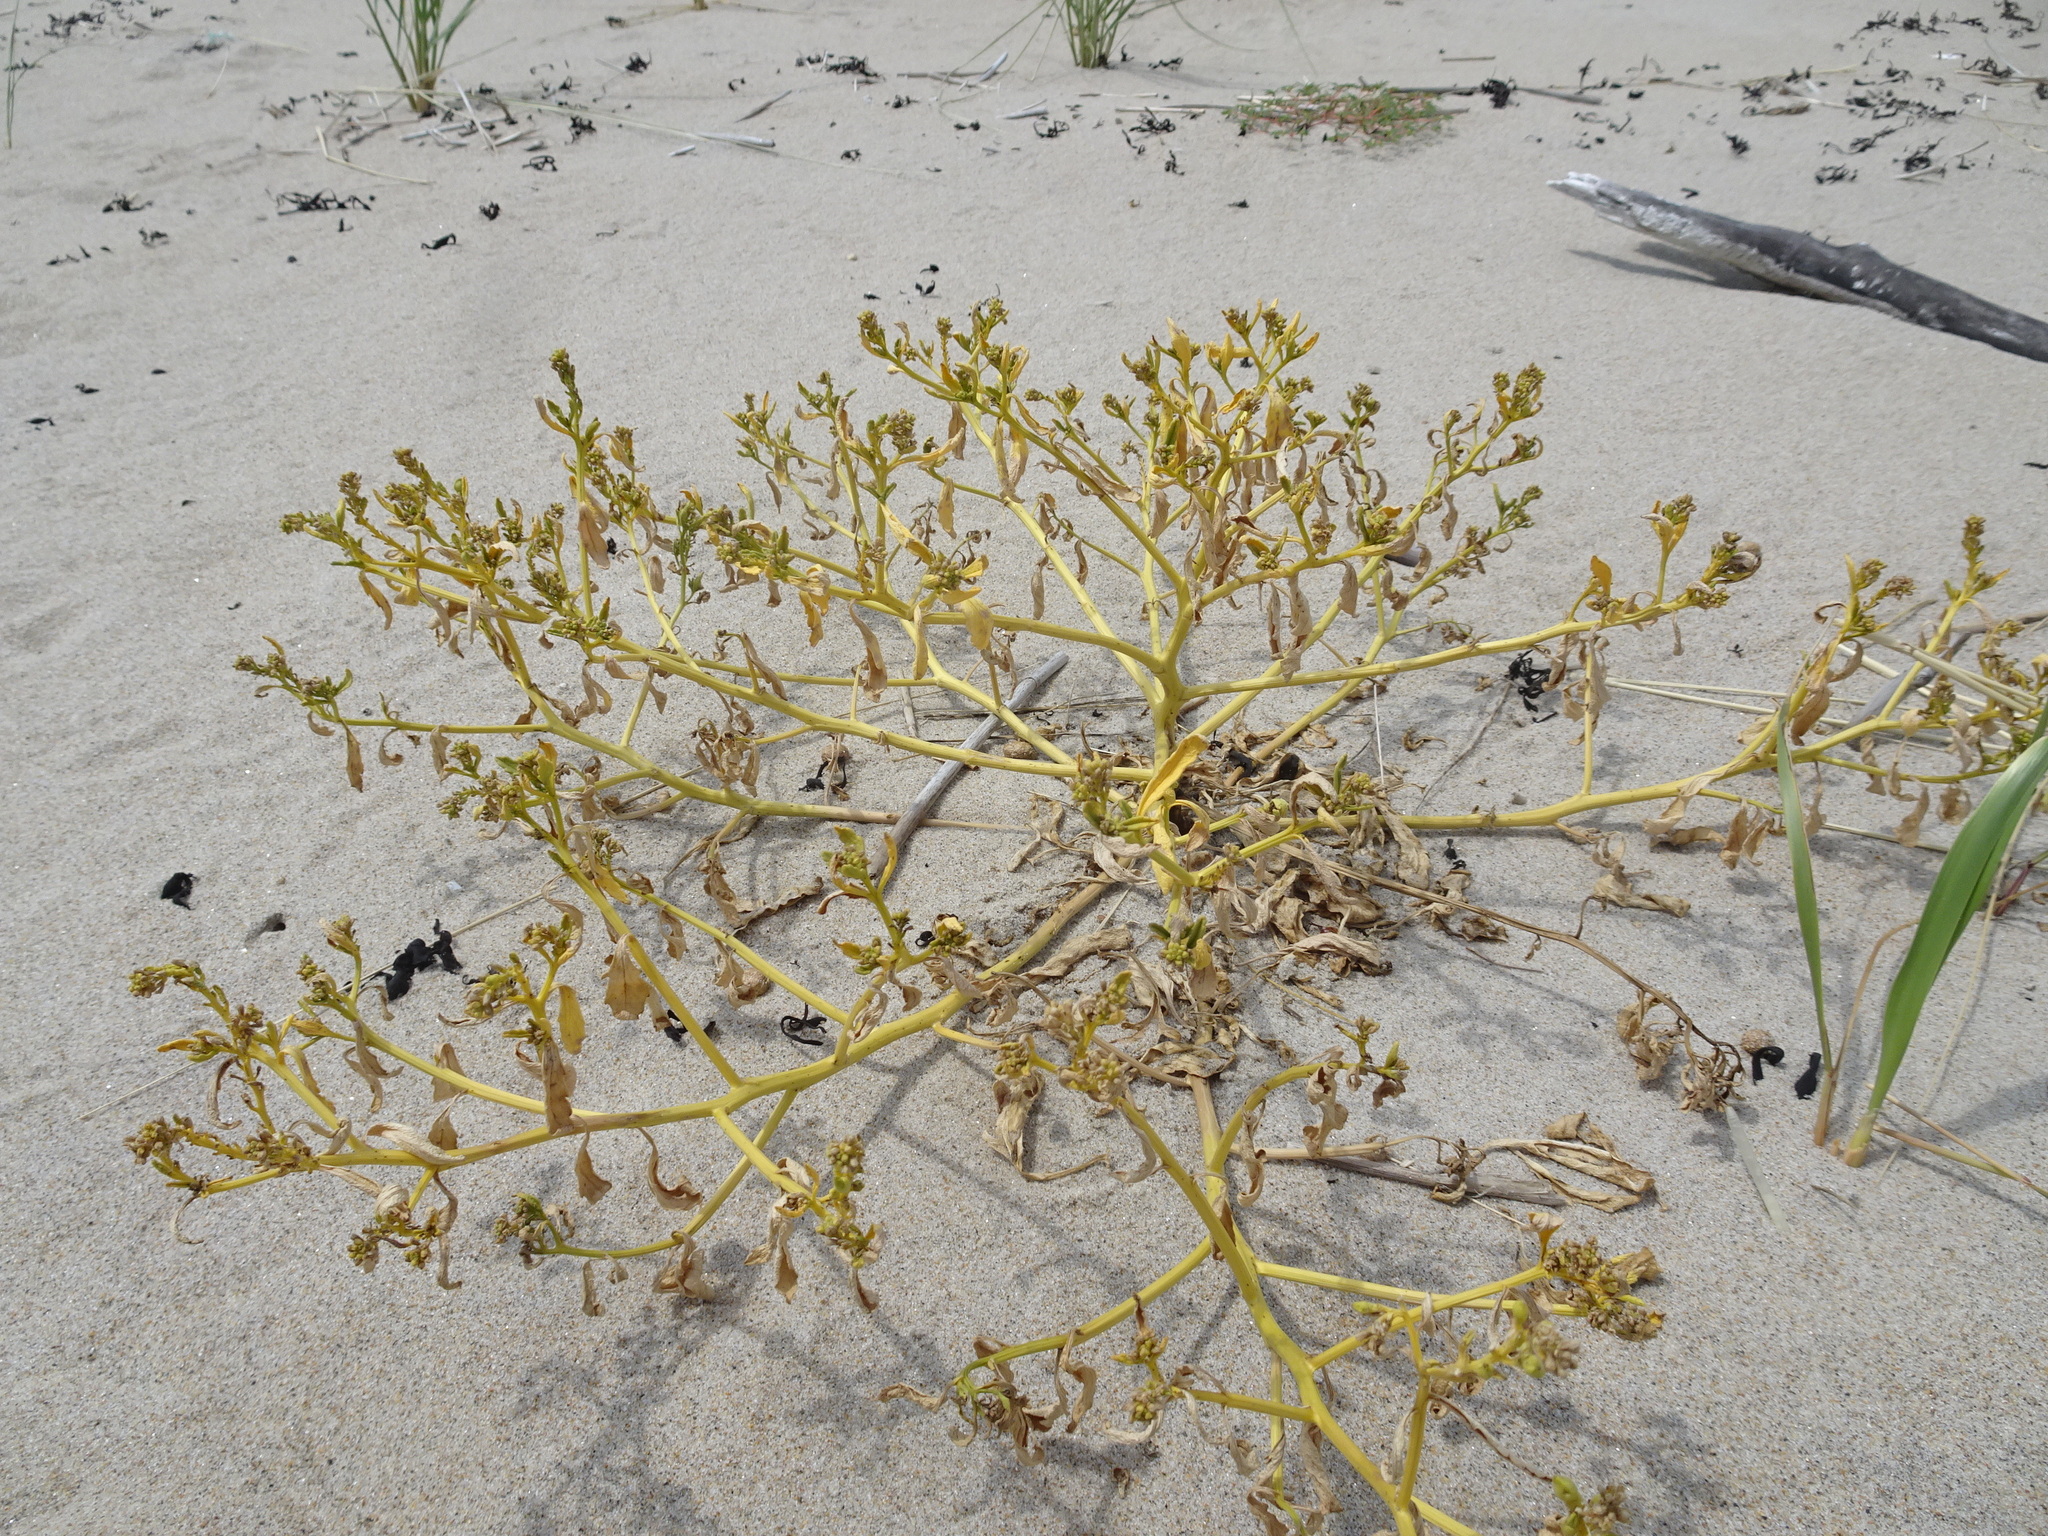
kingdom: Plantae
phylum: Tracheophyta
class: Magnoliopsida
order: Brassicales
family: Brassicaceae
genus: Cakile
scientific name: Cakile edentula
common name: American sea rocket
